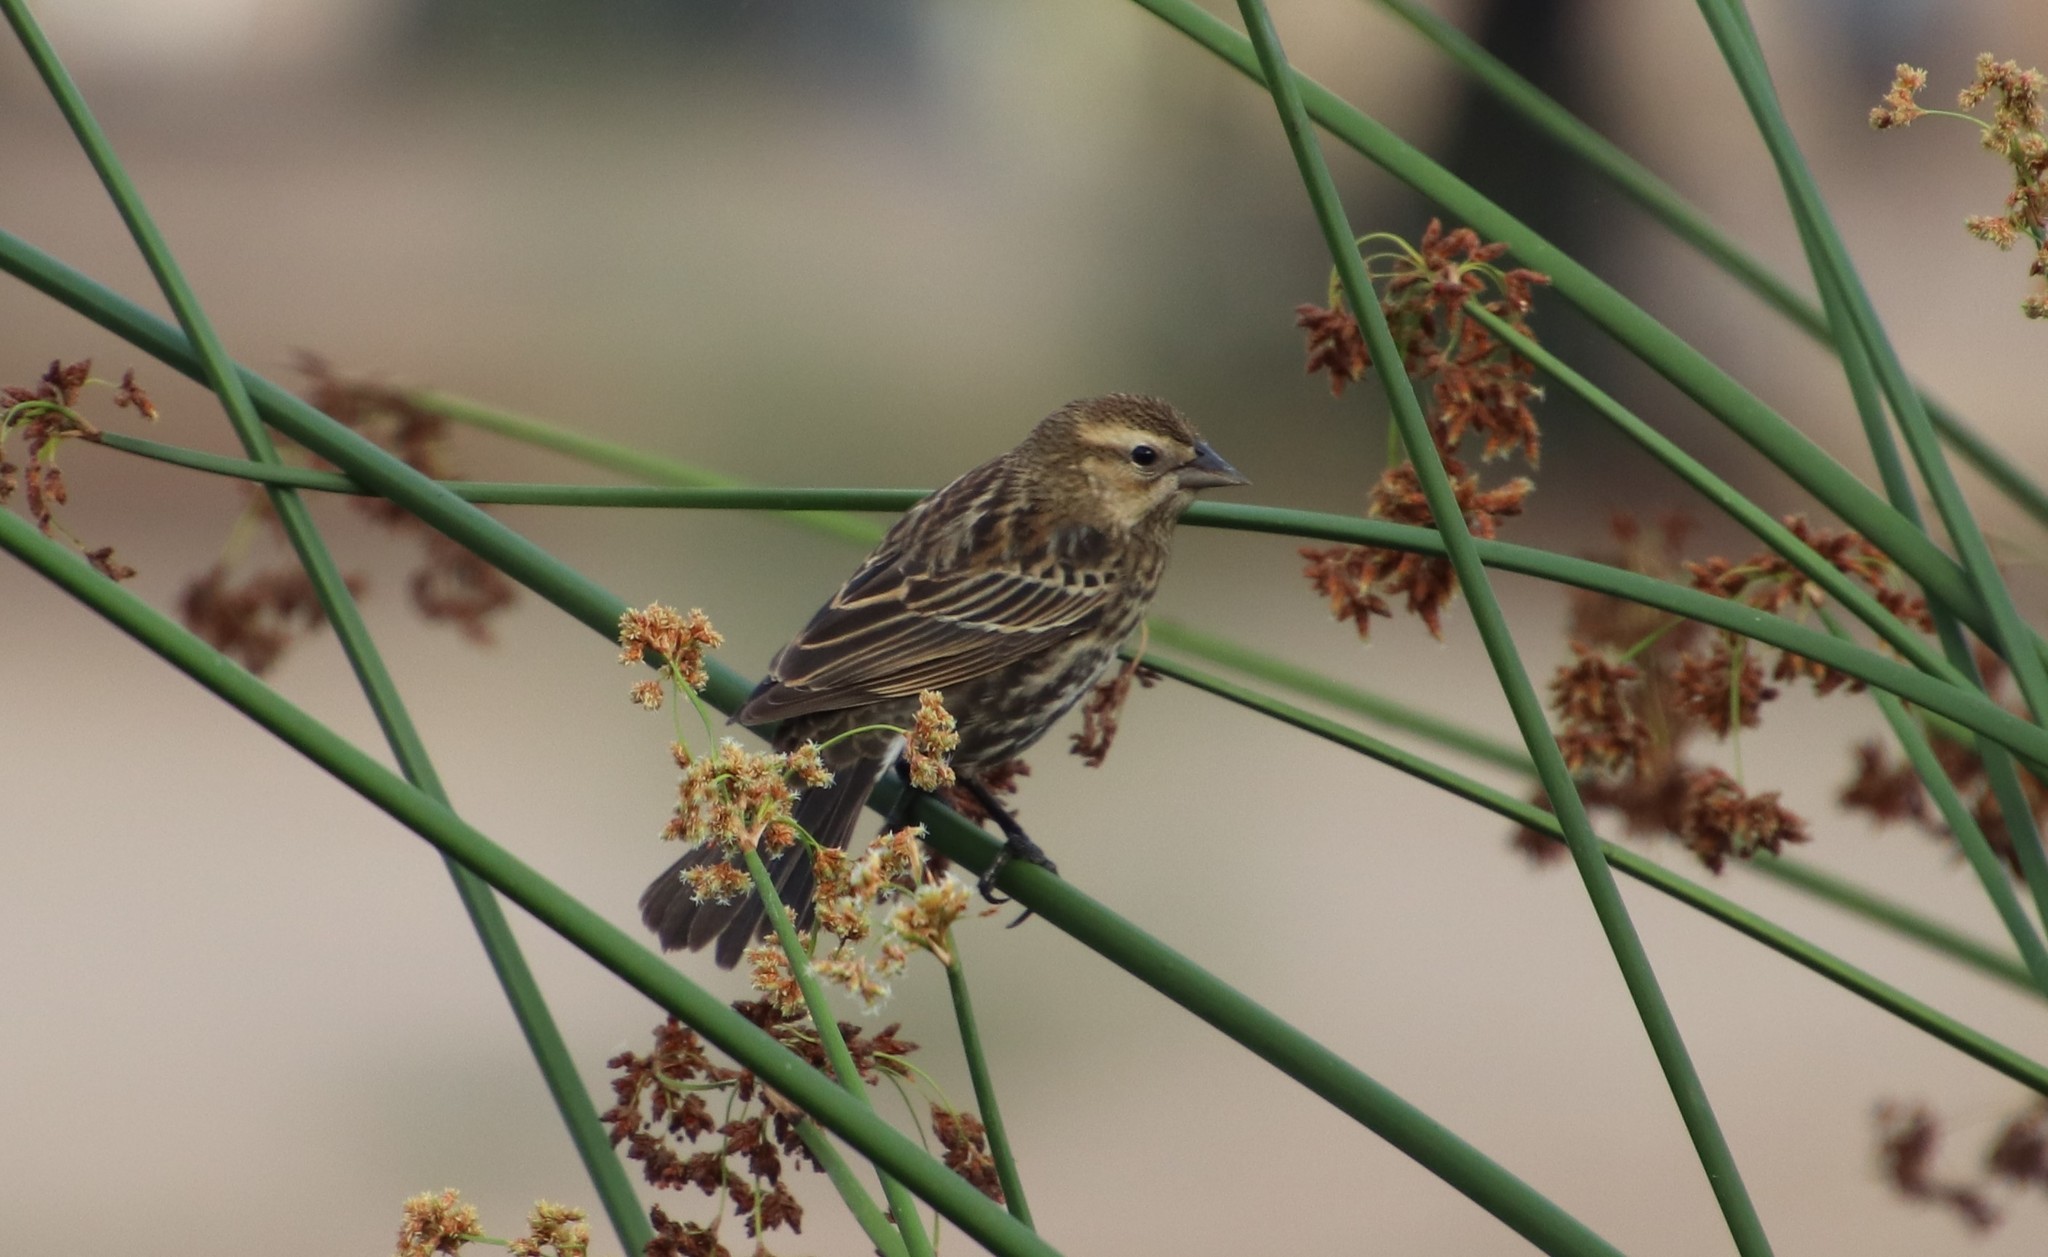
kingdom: Animalia
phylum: Chordata
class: Aves
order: Passeriformes
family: Icteridae
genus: Agelaius
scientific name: Agelaius phoeniceus
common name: Red-winged blackbird
